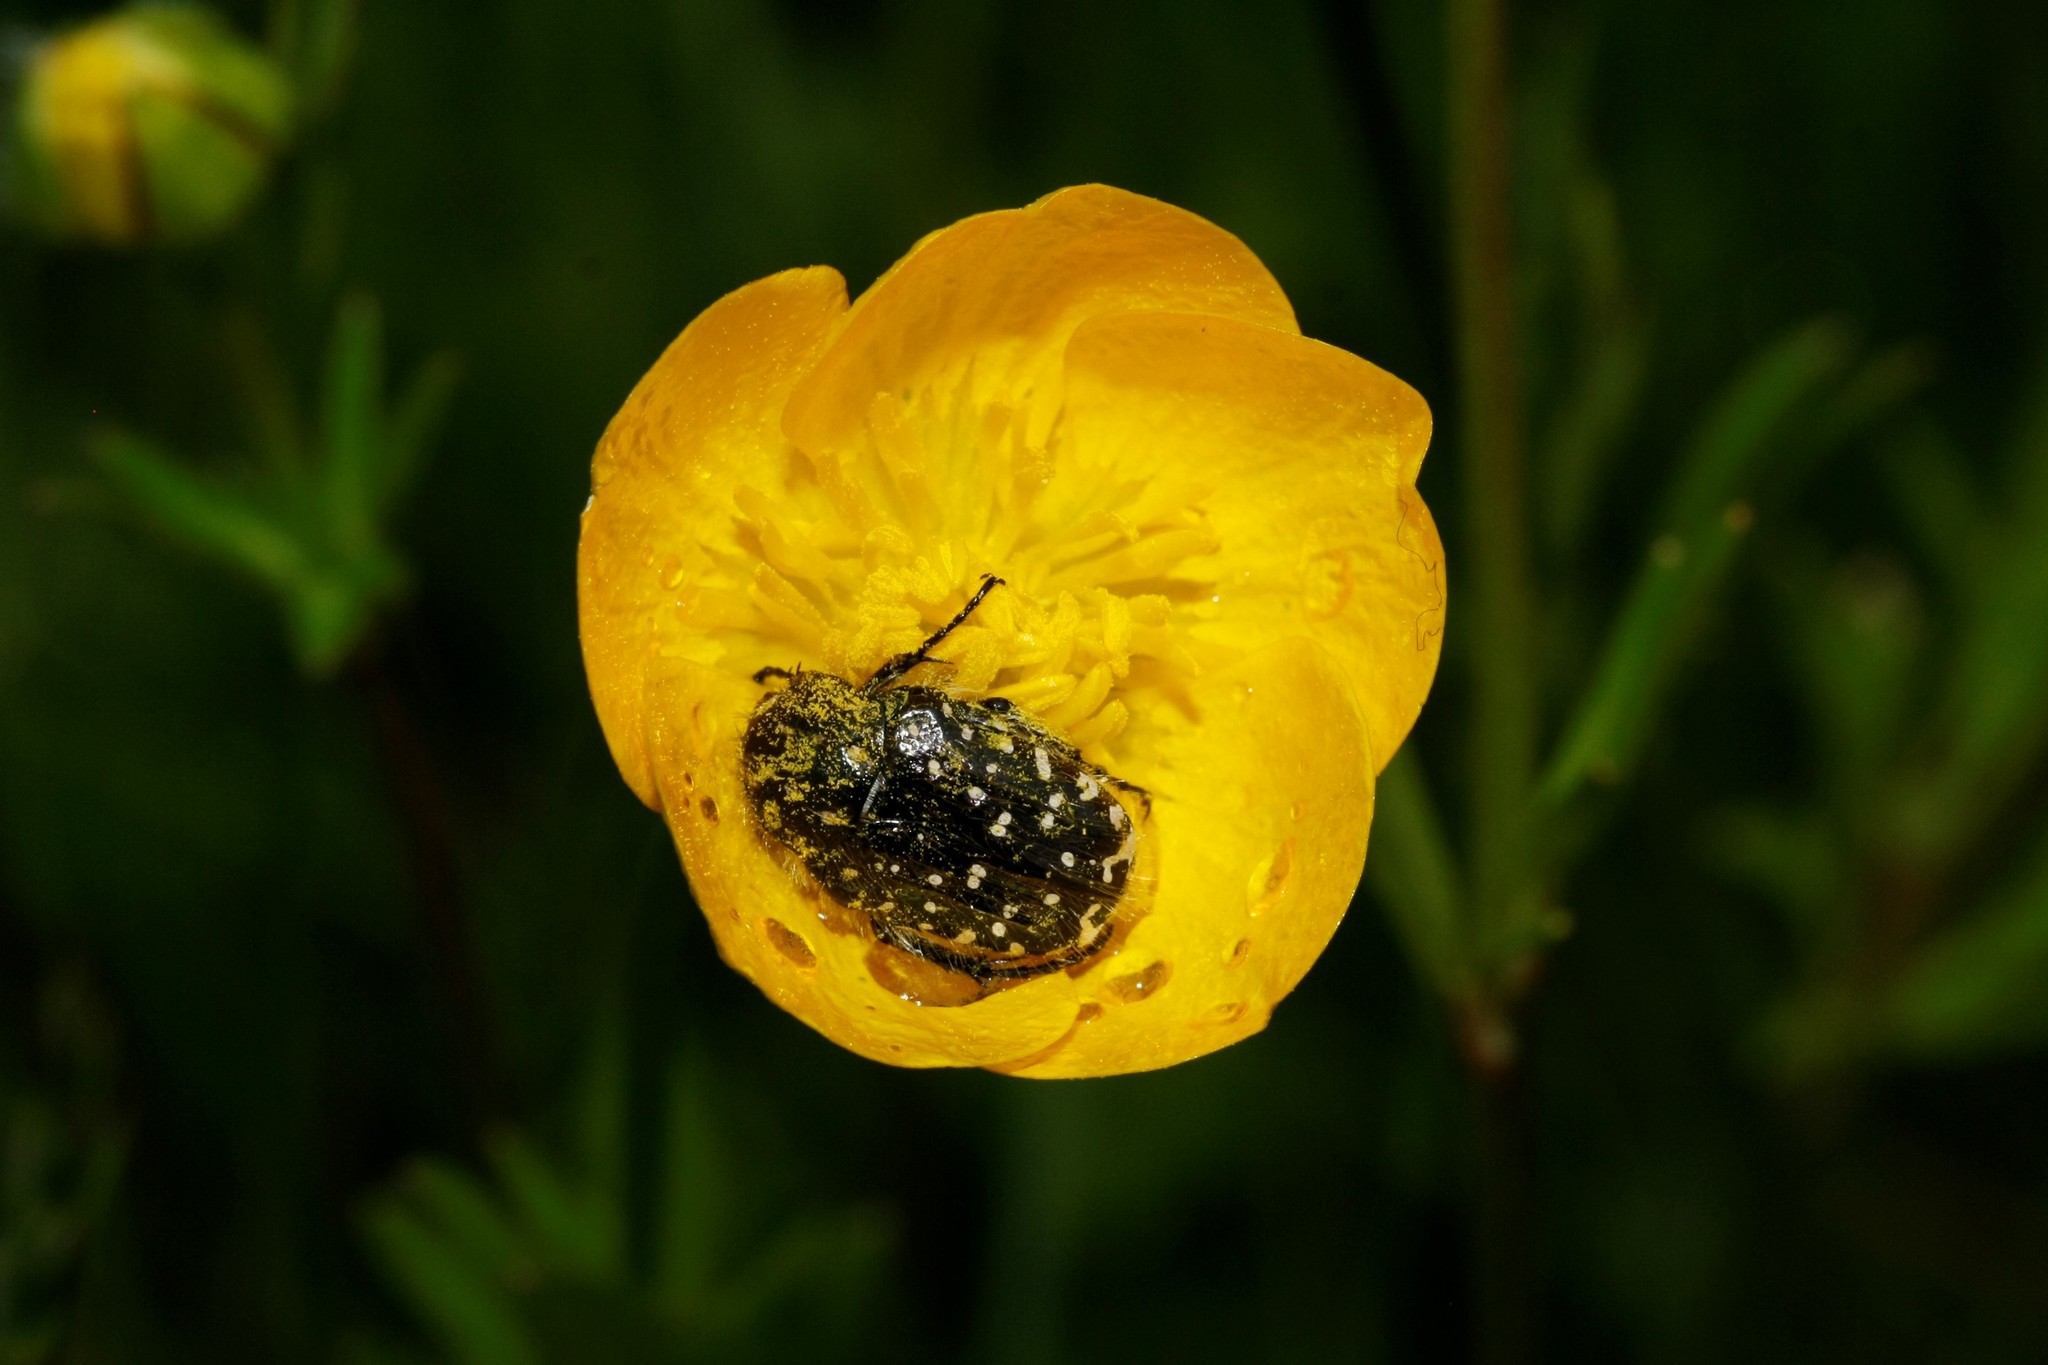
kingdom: Animalia
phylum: Arthropoda
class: Insecta
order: Coleoptera
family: Scarabaeidae
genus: Oxythyrea
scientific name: Oxythyrea funesta
